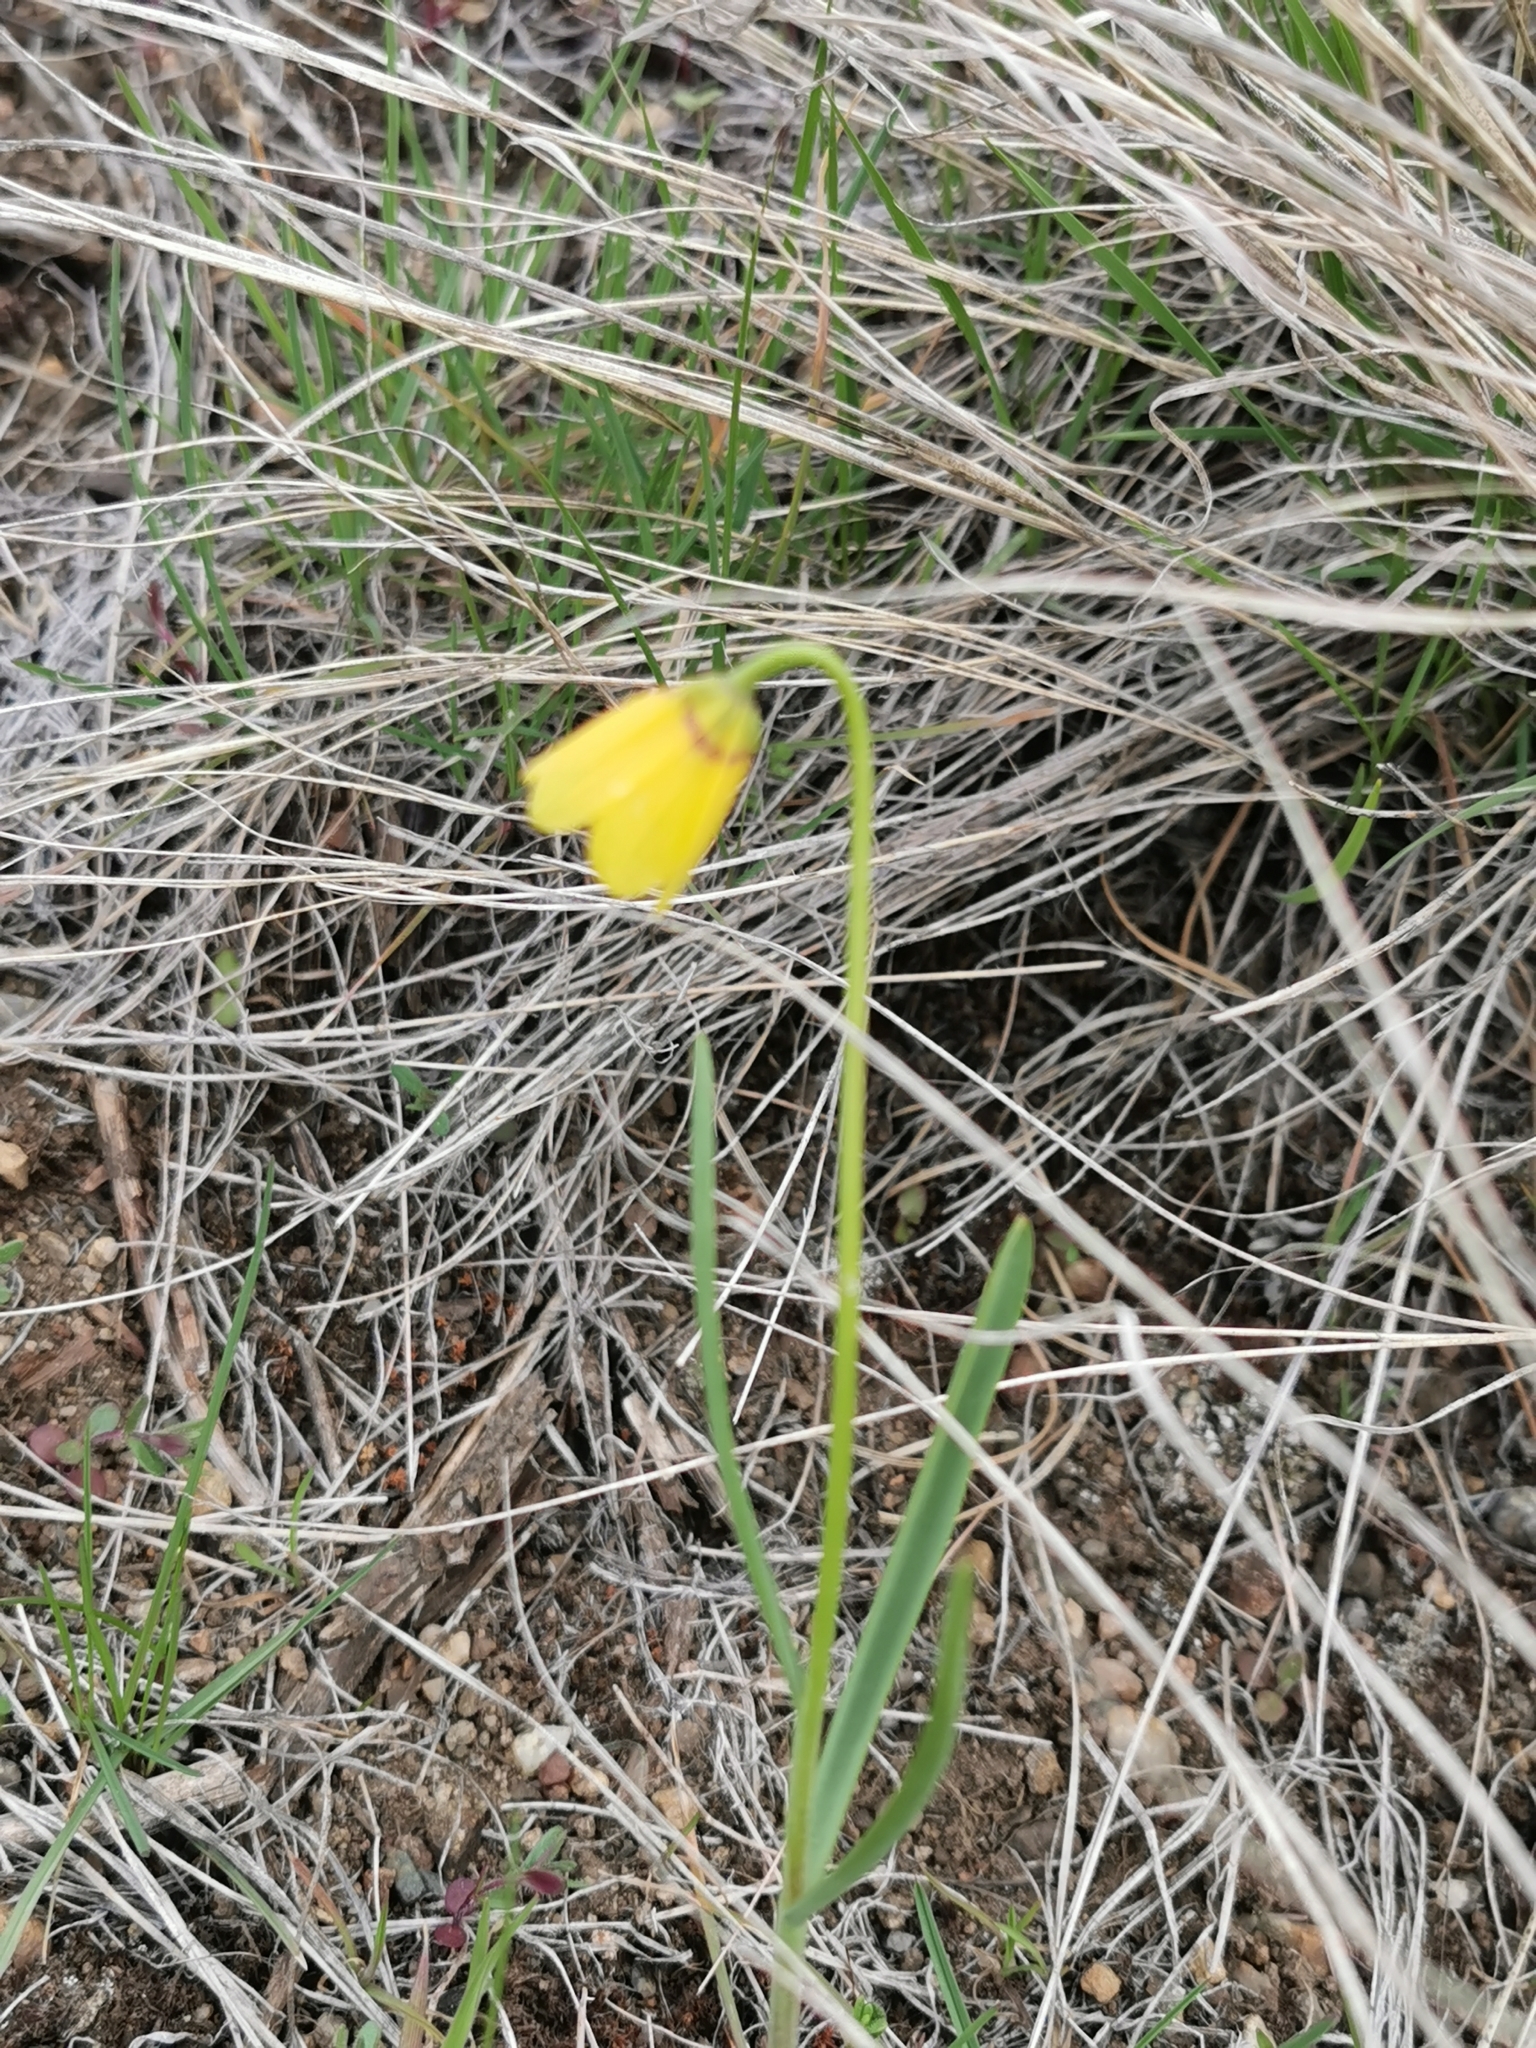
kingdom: Plantae
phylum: Tracheophyta
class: Liliopsida
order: Liliales
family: Liliaceae
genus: Fritillaria
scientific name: Fritillaria pudica
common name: Yellow fritillary
